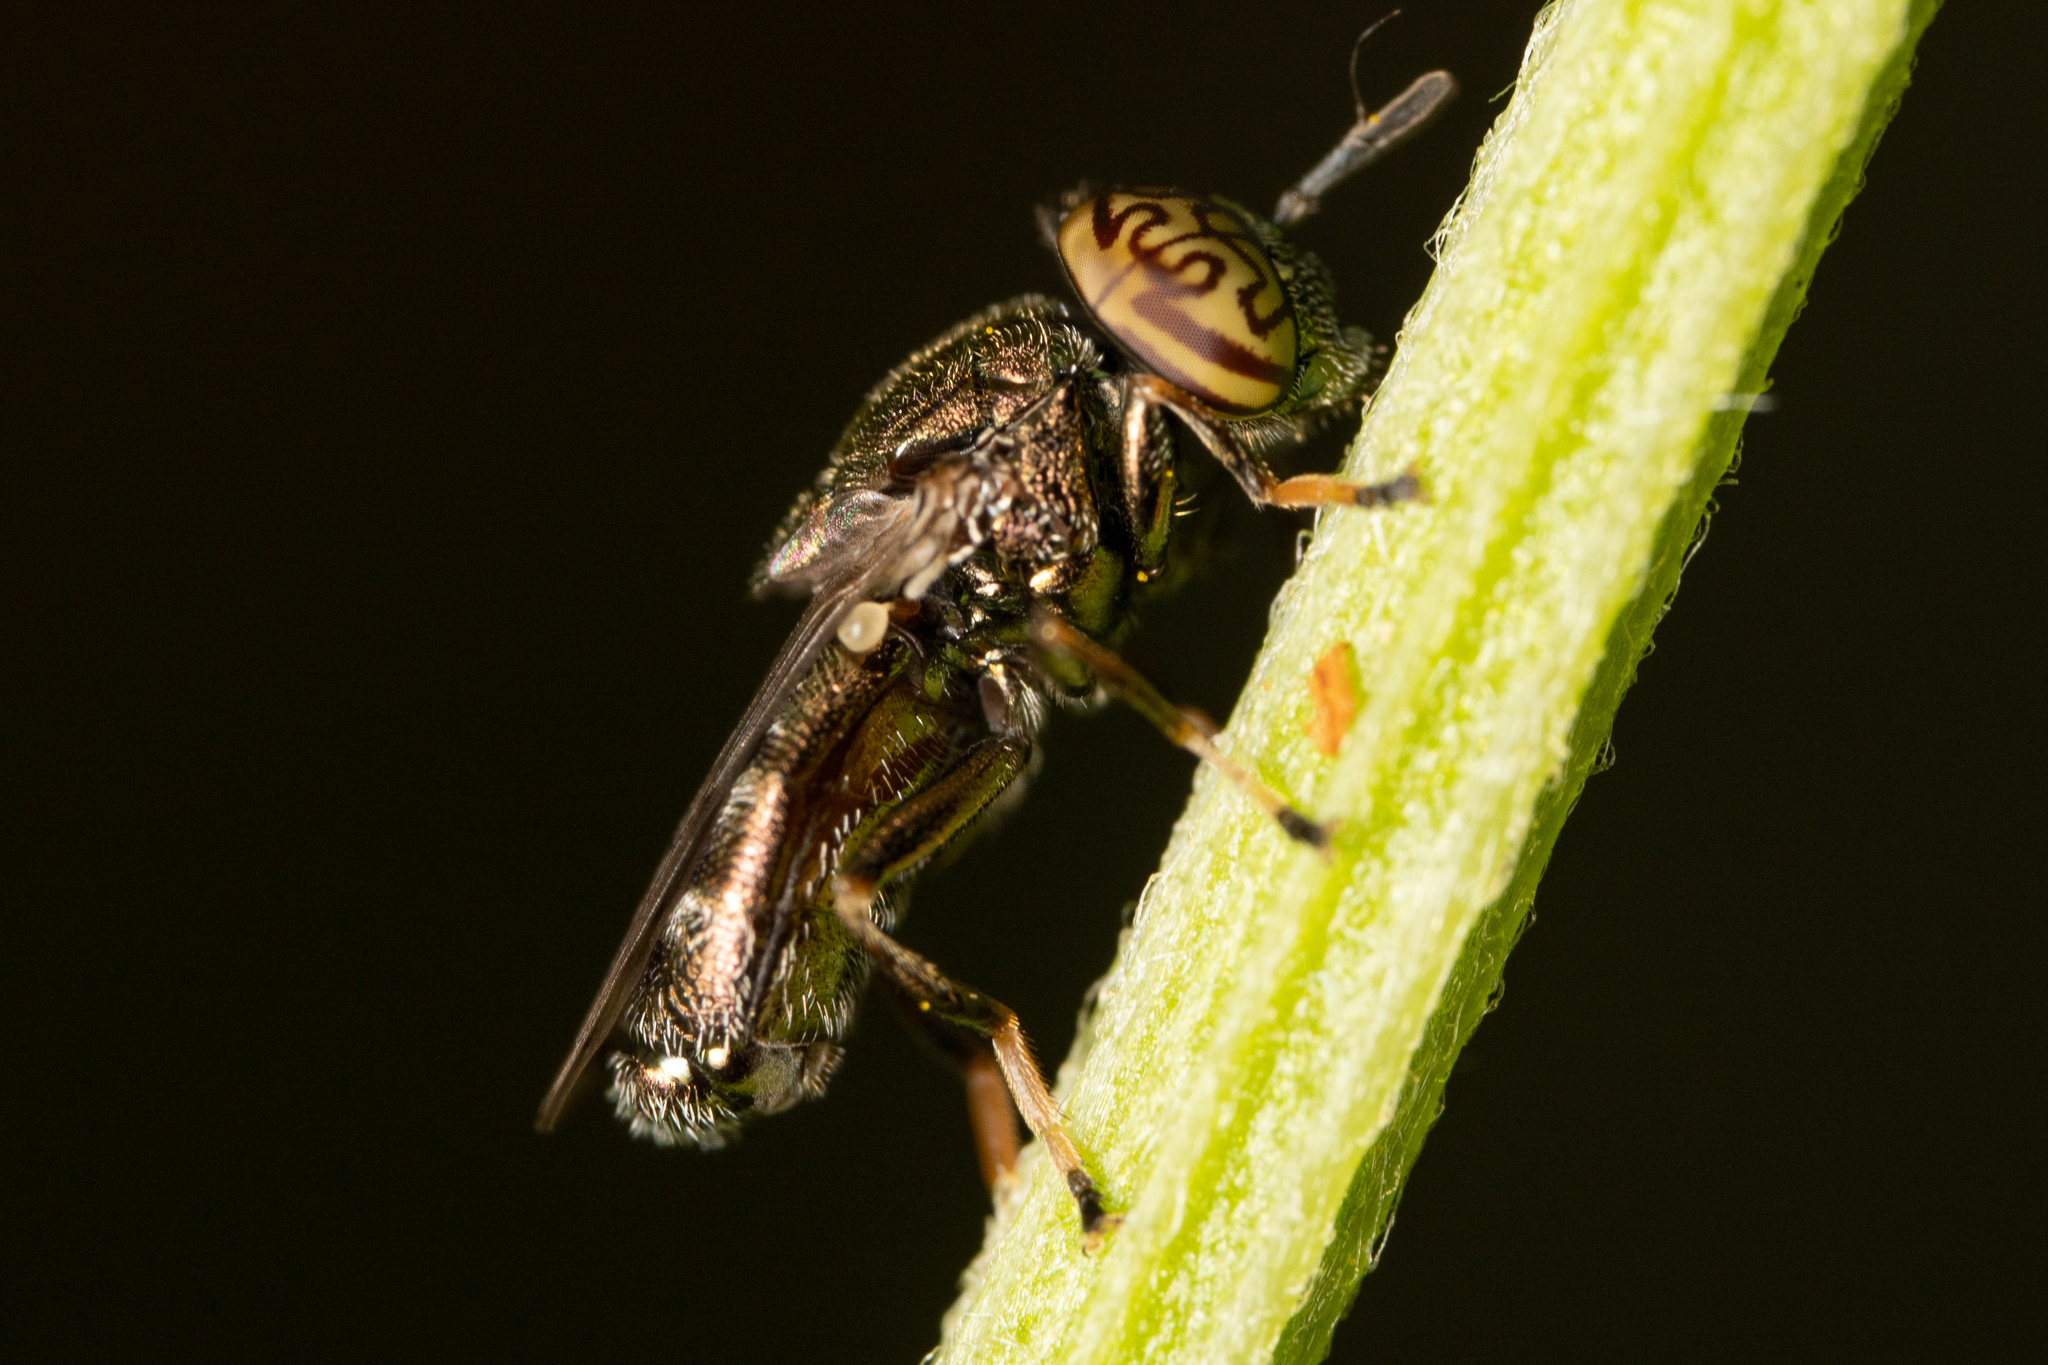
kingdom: Animalia
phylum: Arthropoda
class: Insecta
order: Diptera
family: Syrphidae
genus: Orthonevra
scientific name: Orthonevra nitida
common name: Wavy mucksucker
